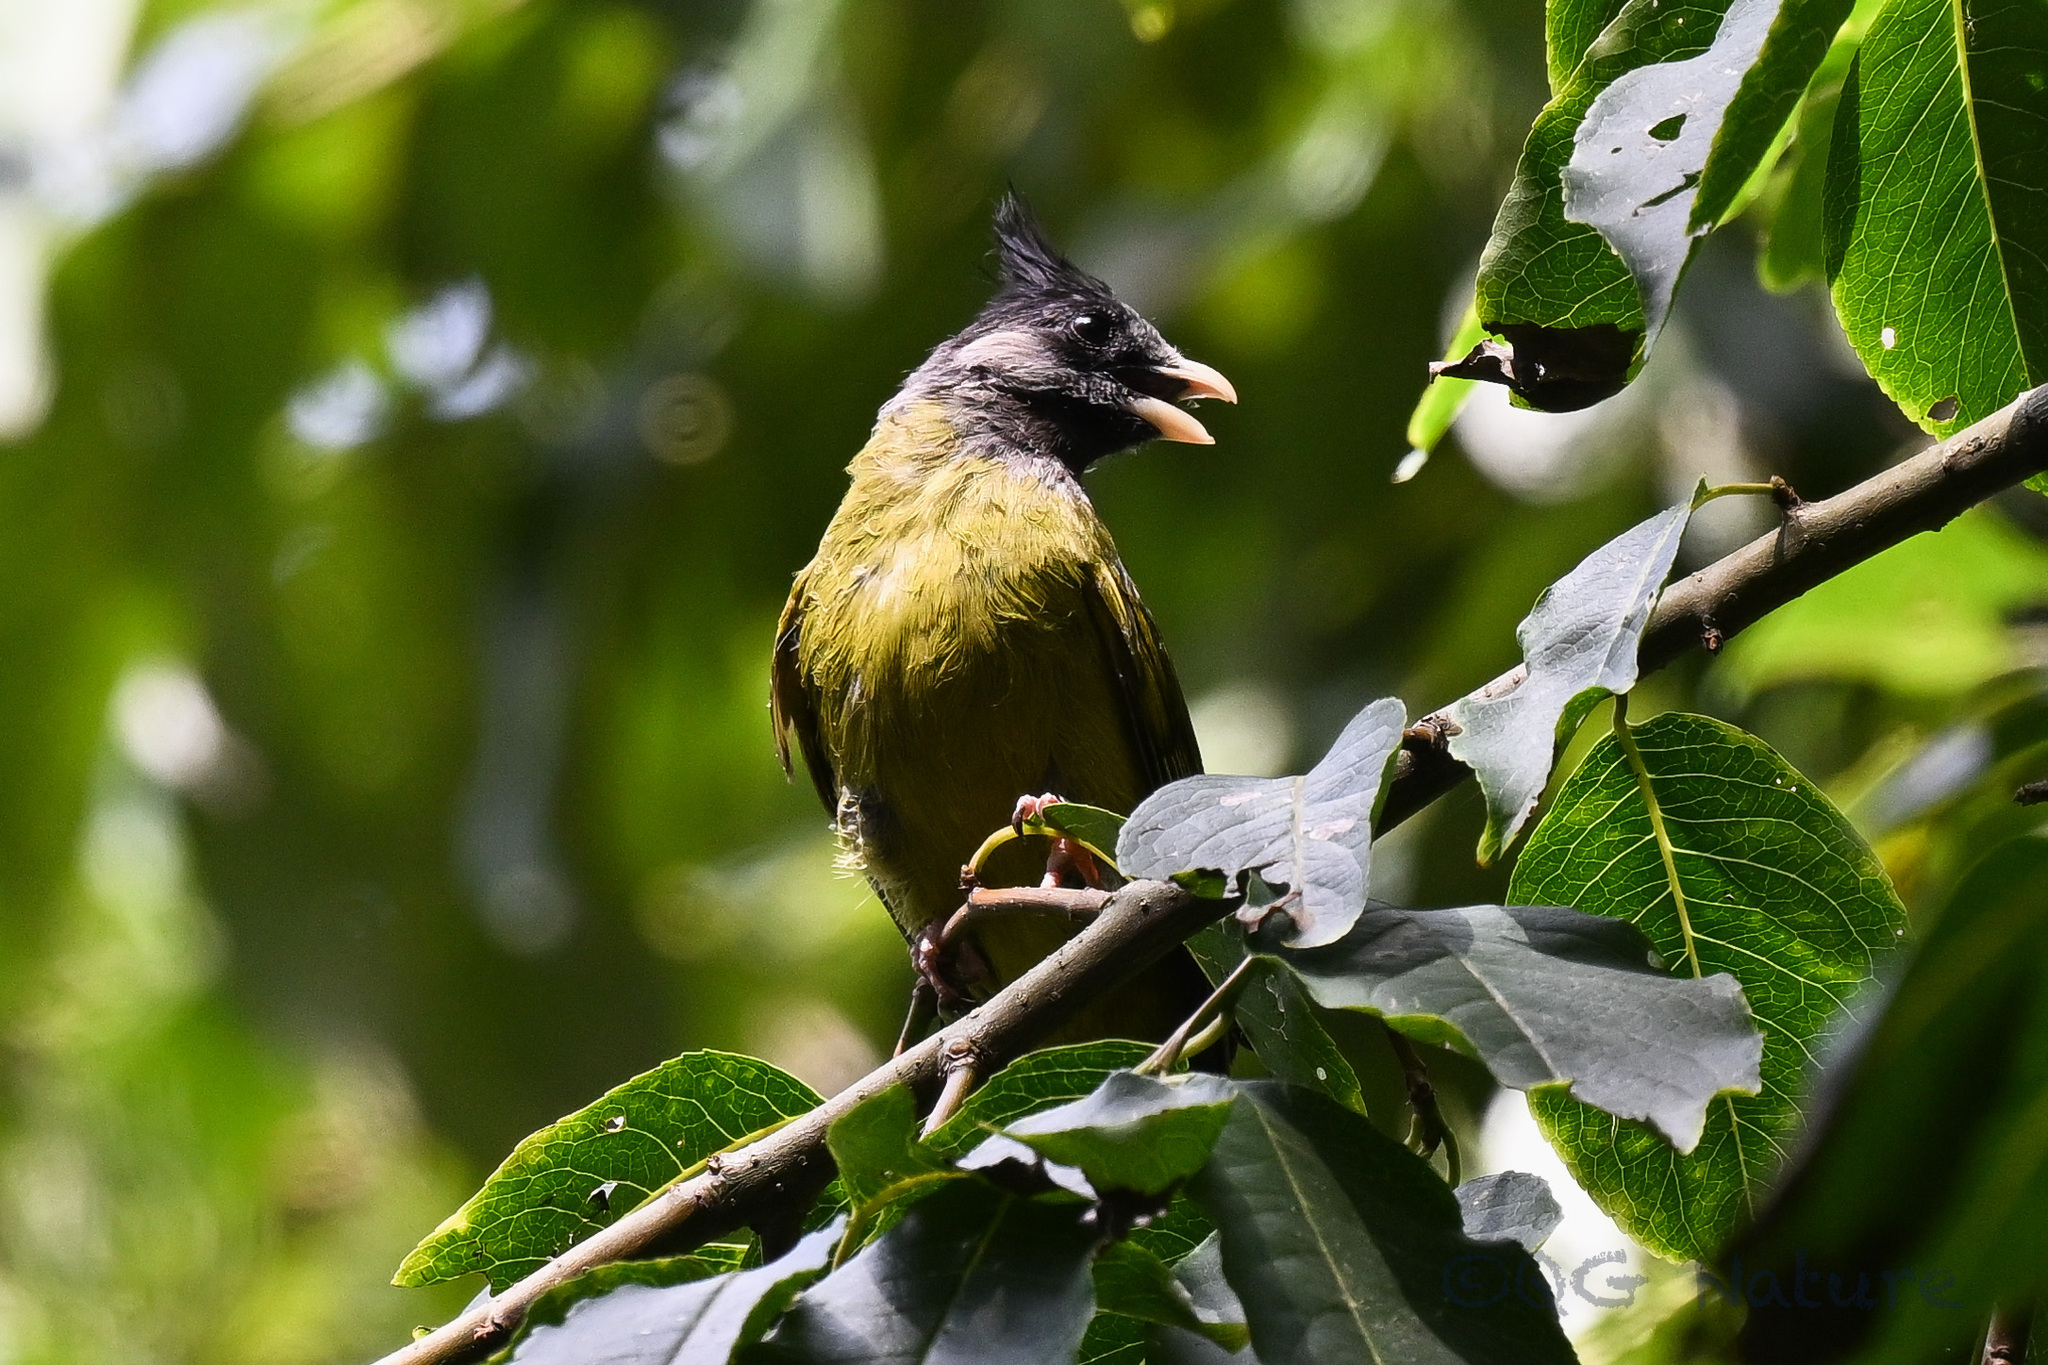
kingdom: Animalia
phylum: Chordata
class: Aves
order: Passeriformes
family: Pycnonotidae
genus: Spizixos
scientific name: Spizixos canifrons
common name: Crested finchbill
